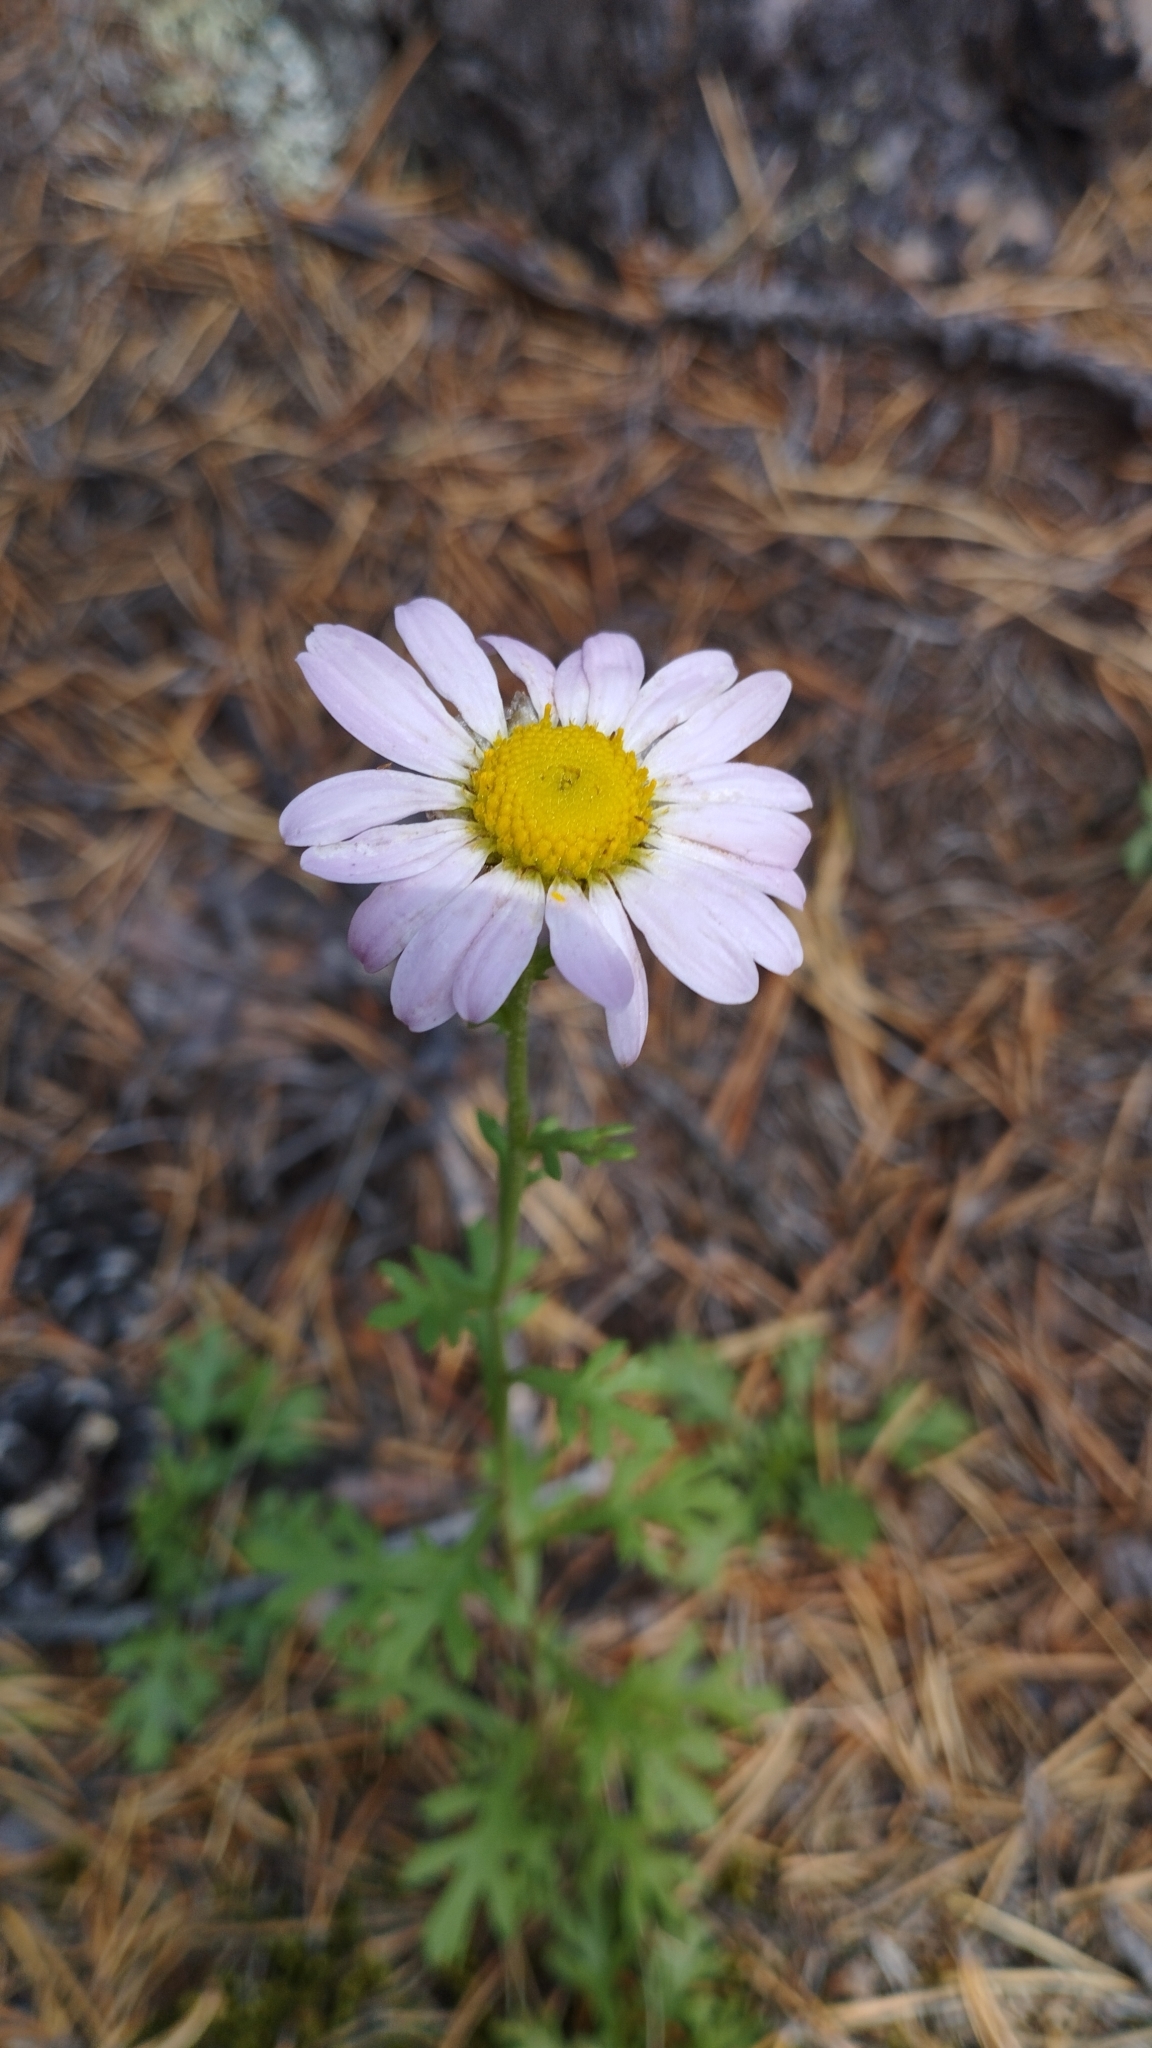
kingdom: Plantae
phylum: Tracheophyta
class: Magnoliopsida
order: Asterales
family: Asteraceae
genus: Chrysanthemum
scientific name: Chrysanthemum zawadzkii
